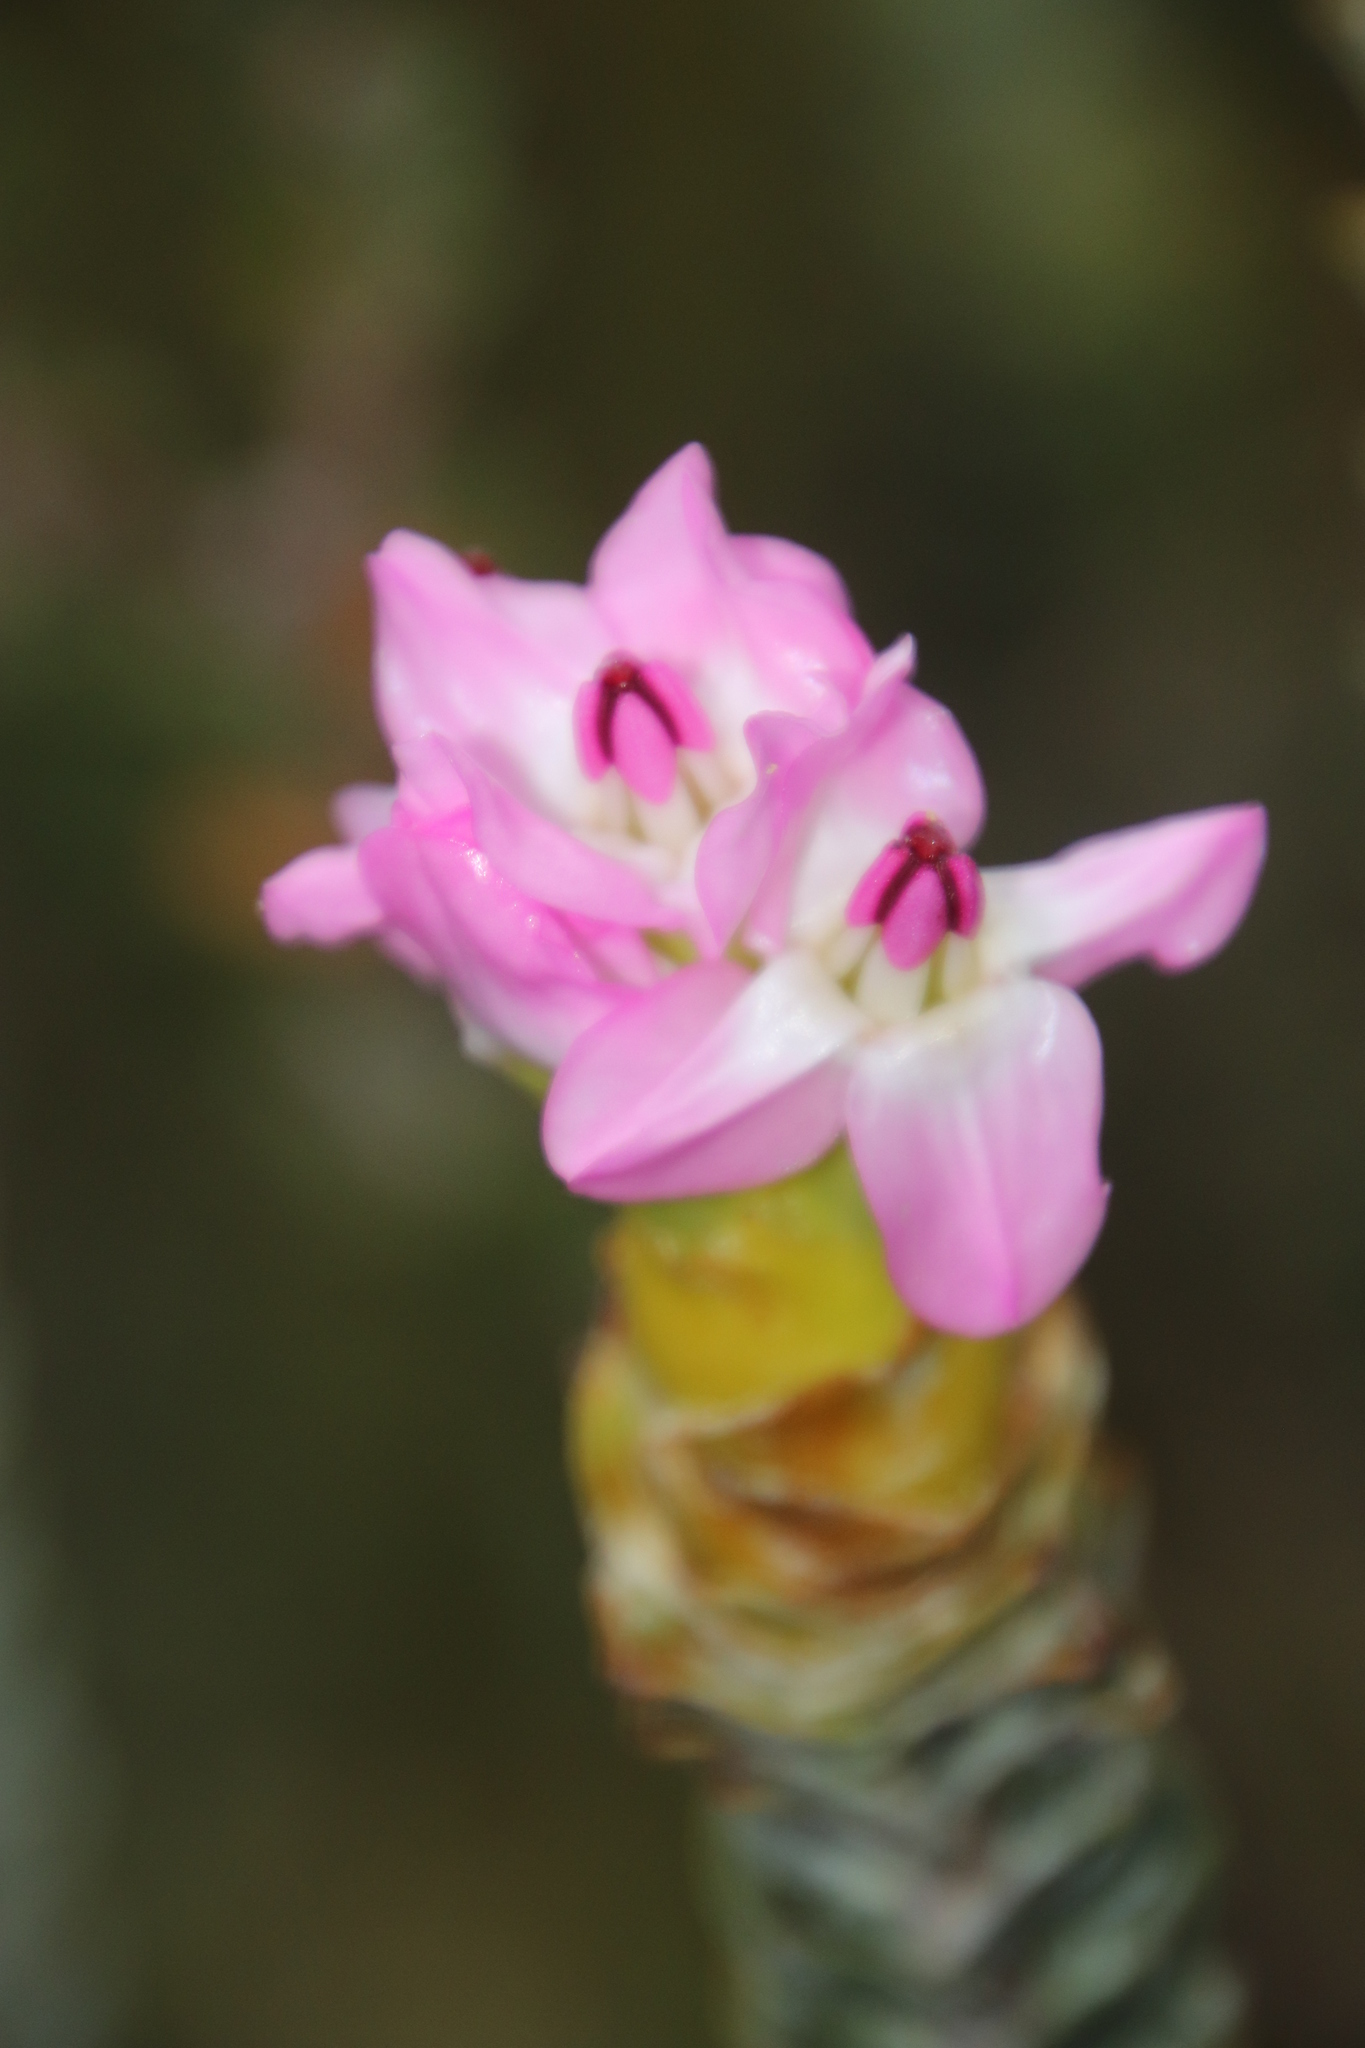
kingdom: Plantae
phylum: Tracheophyta
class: Magnoliopsida
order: Myrtales
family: Penaeaceae
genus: Saltera
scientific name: Saltera sarcocolla
